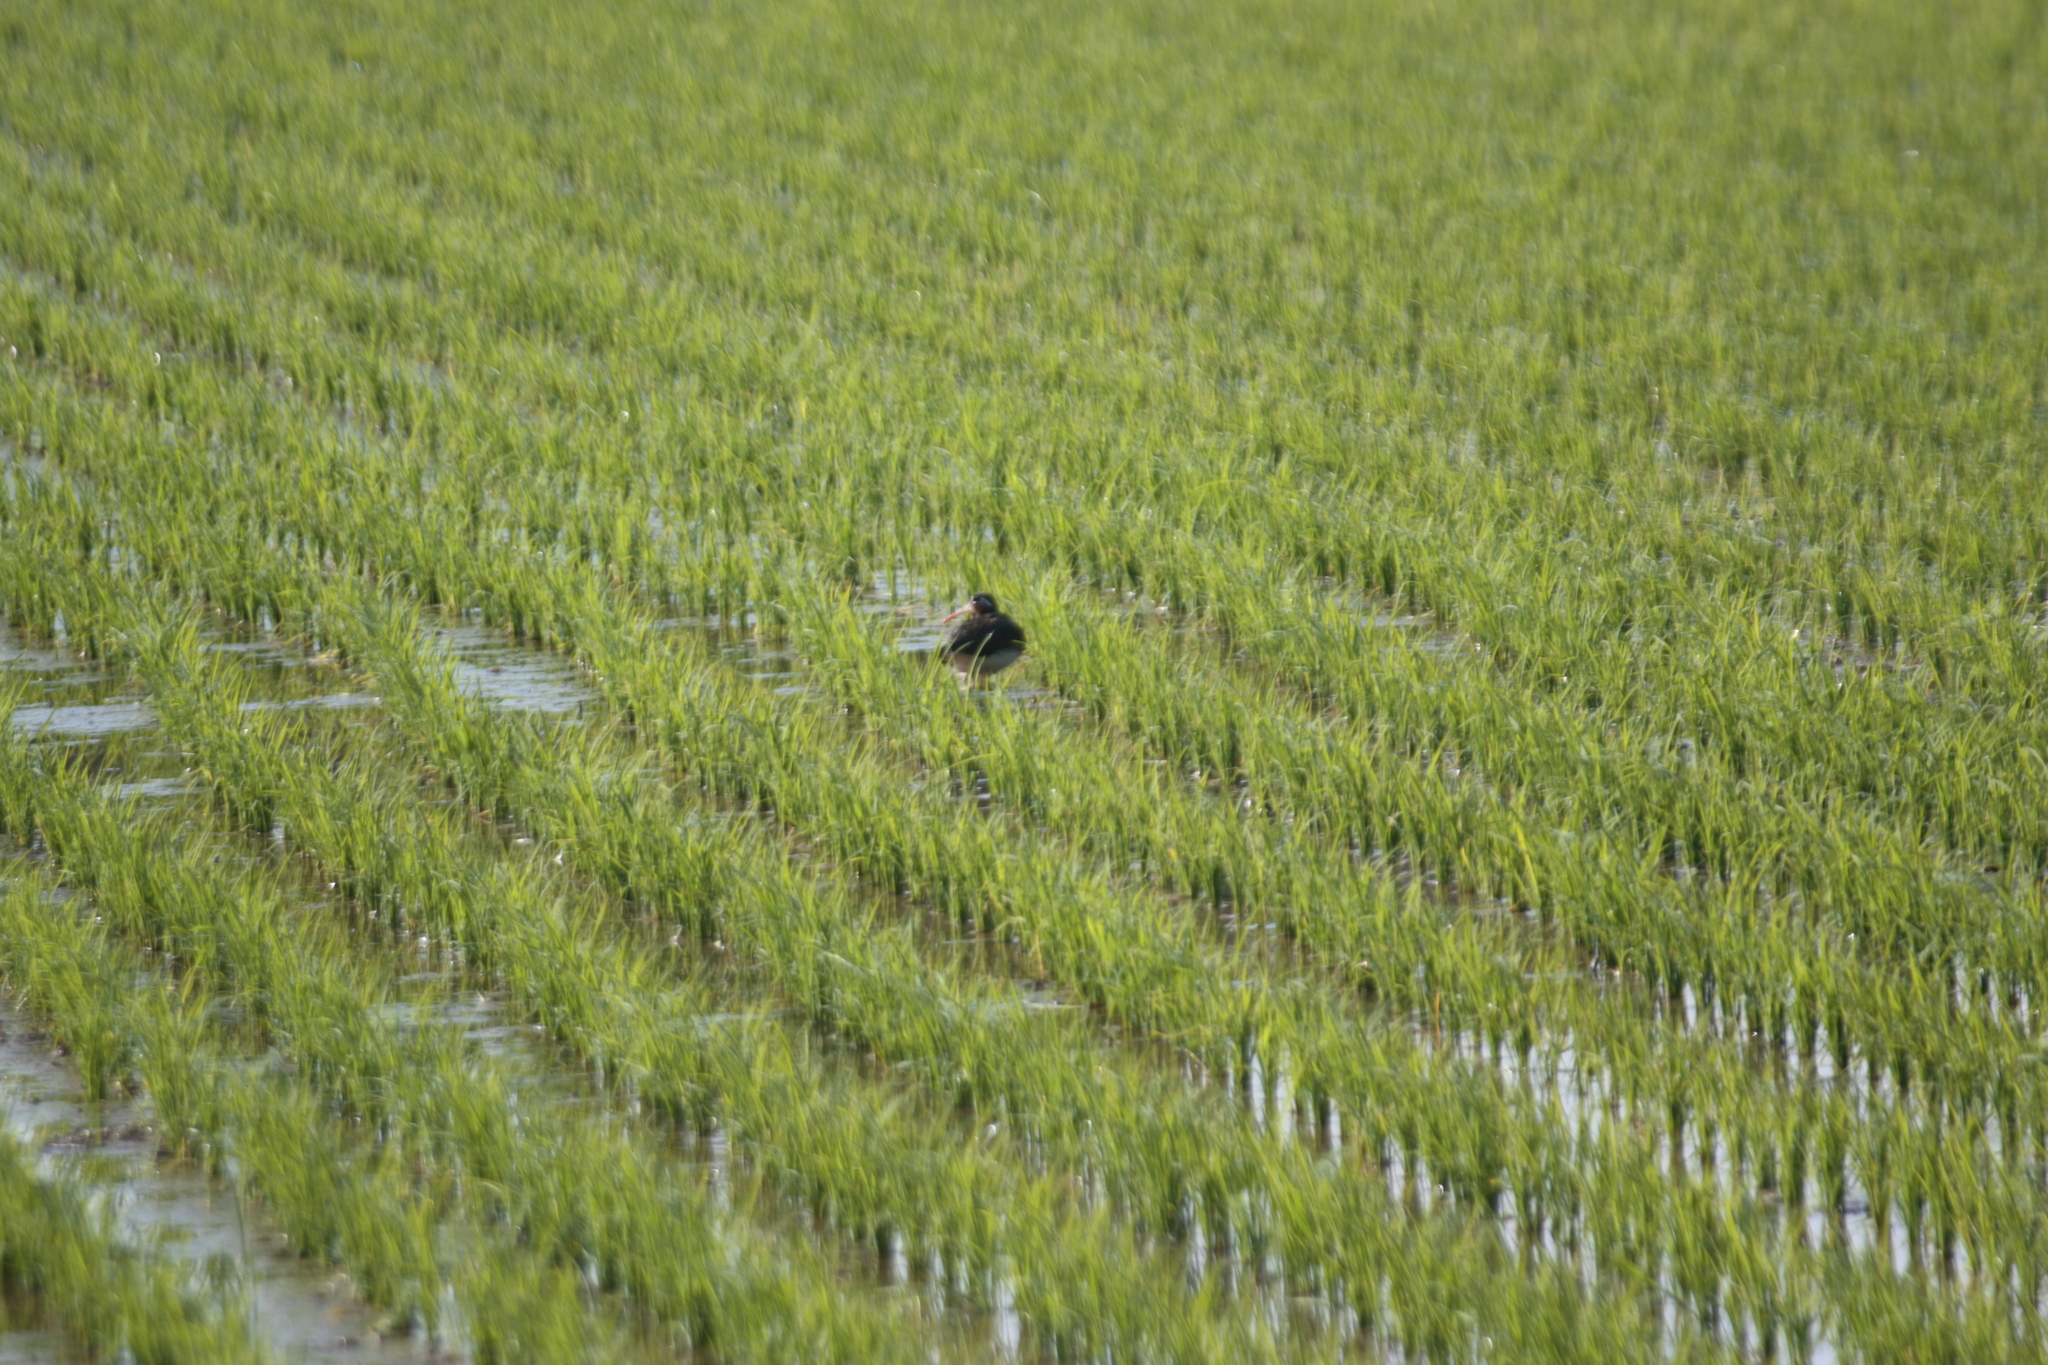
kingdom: Animalia
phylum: Chordata
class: Aves
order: Charadriiformes
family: Rostratulidae
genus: Rostratula
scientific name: Rostratula benghalensis
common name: Greater painted-snipe
